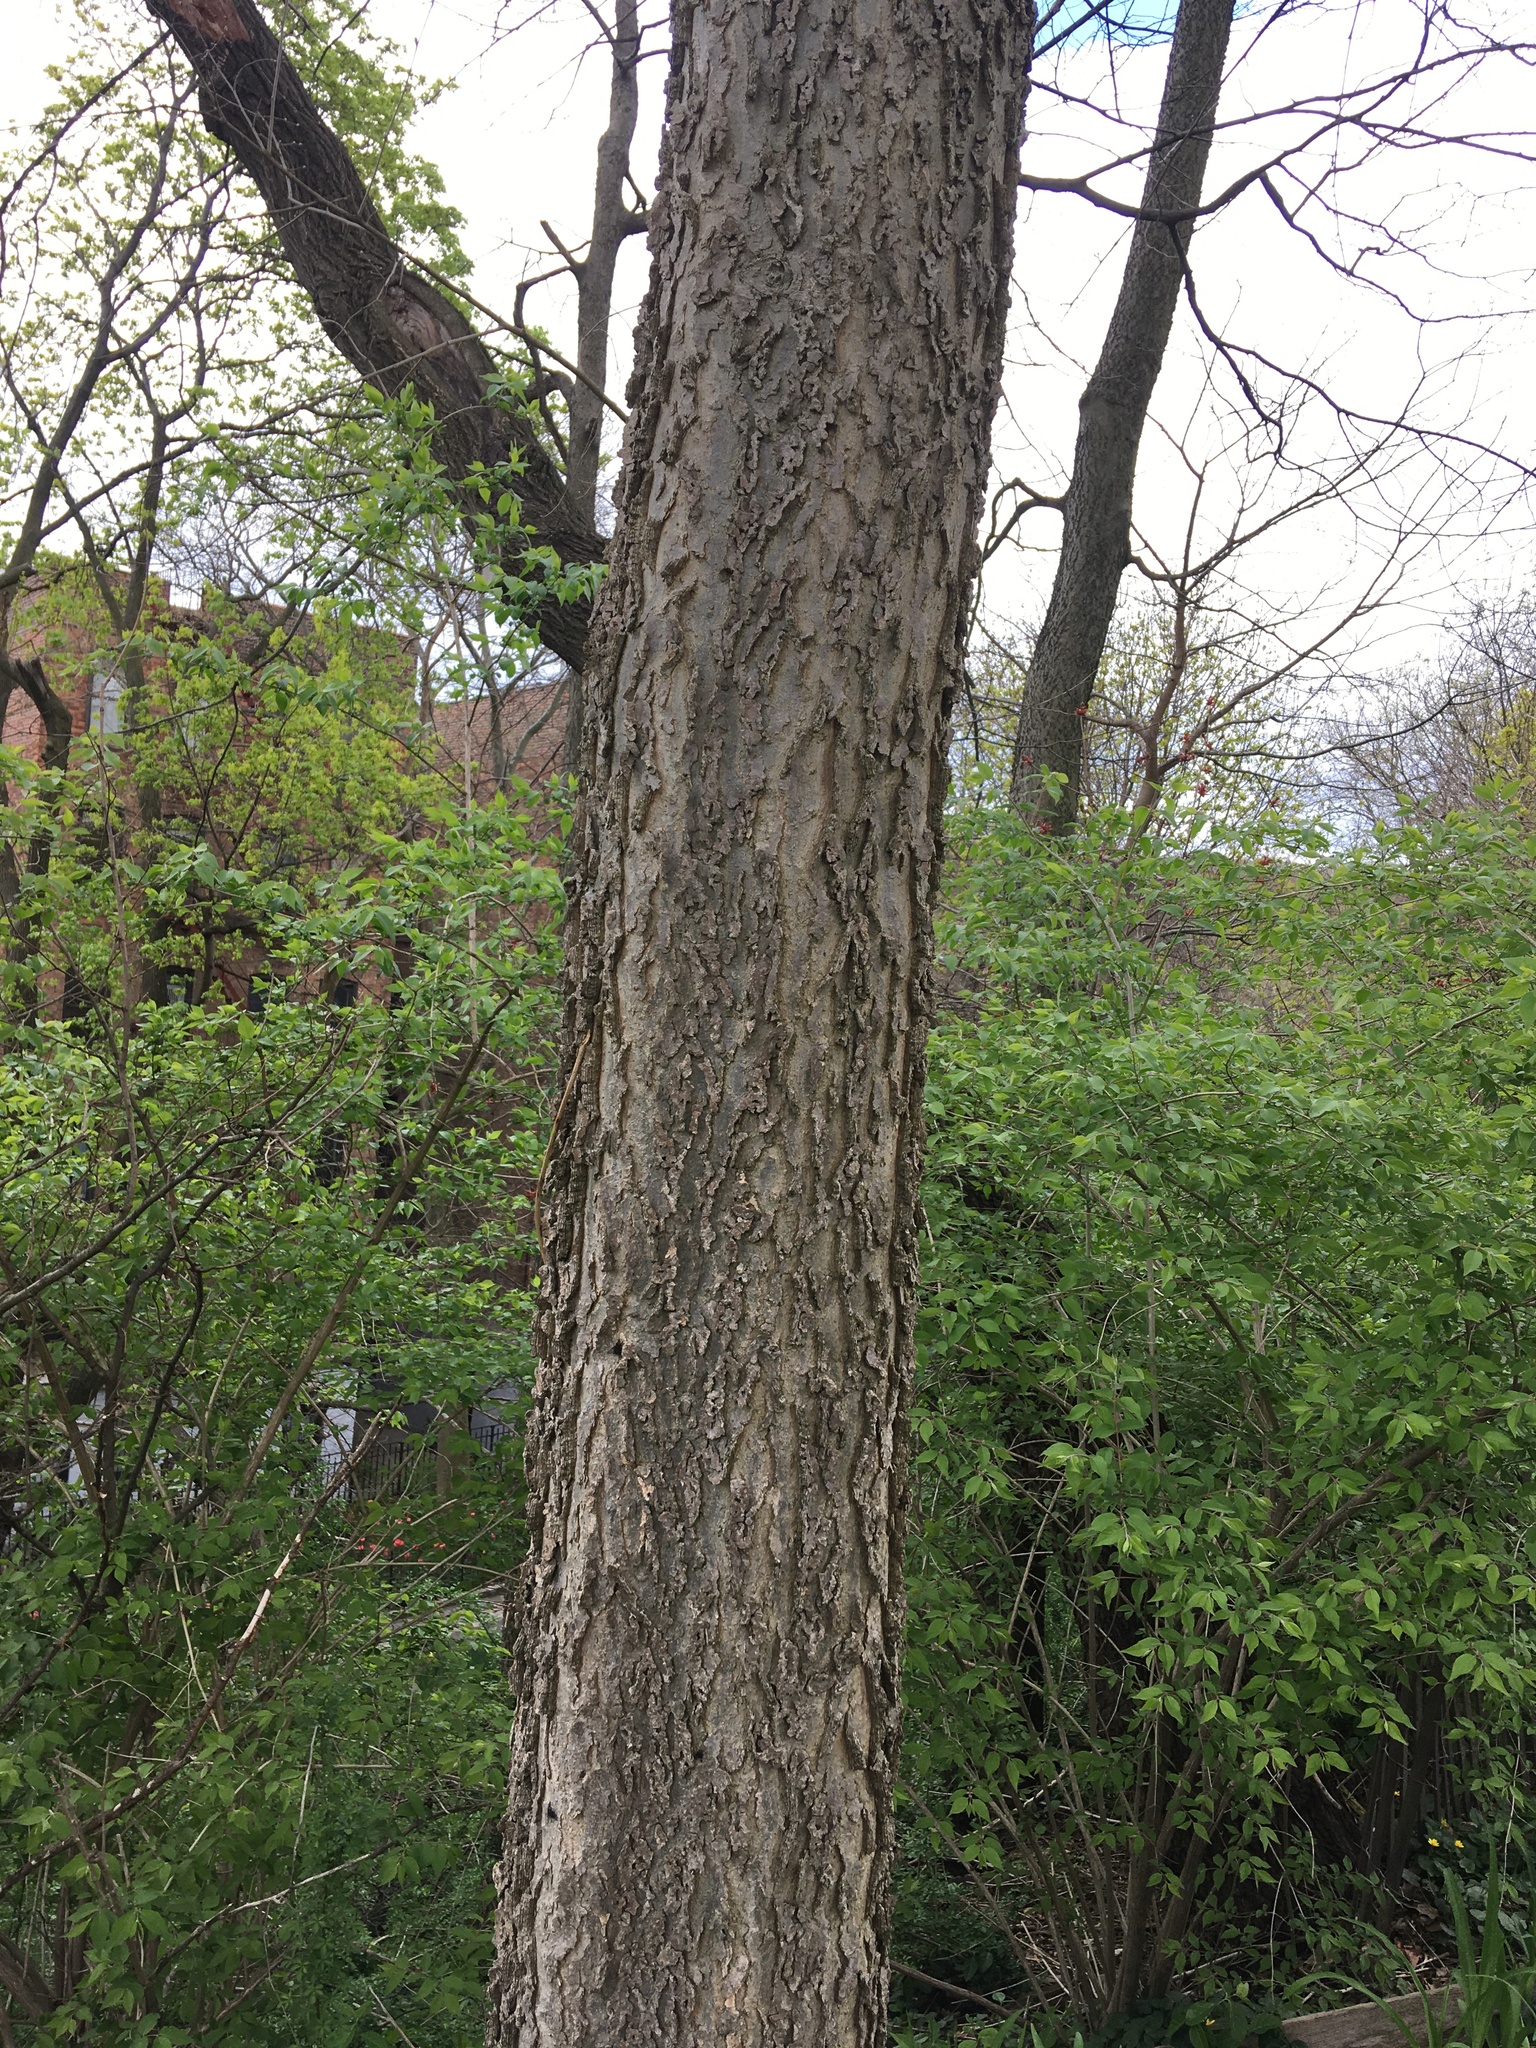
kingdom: Plantae
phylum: Tracheophyta
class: Magnoliopsida
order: Rosales
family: Cannabaceae
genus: Celtis
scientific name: Celtis occidentalis
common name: Common hackberry
